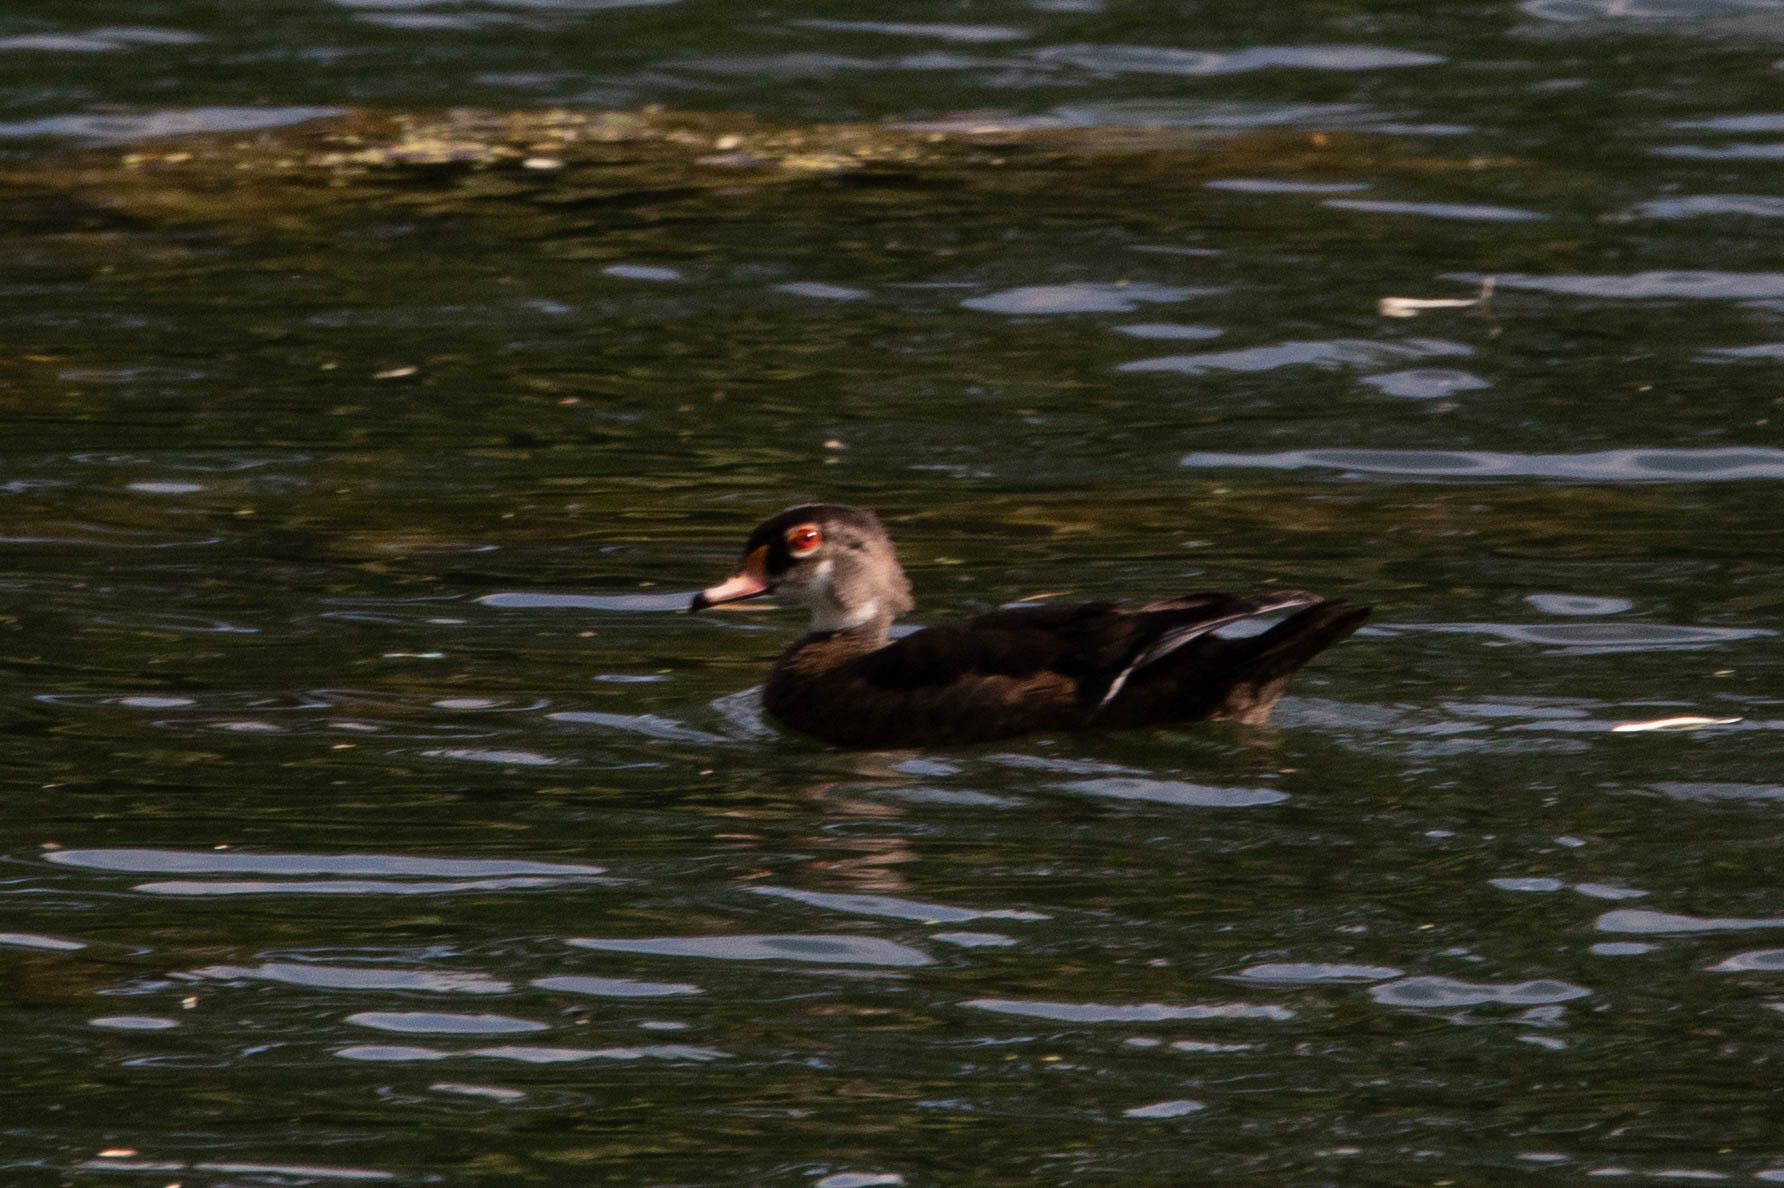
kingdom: Animalia
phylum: Chordata
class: Aves
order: Anseriformes
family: Anatidae
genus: Aix
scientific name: Aix sponsa
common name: Wood duck
